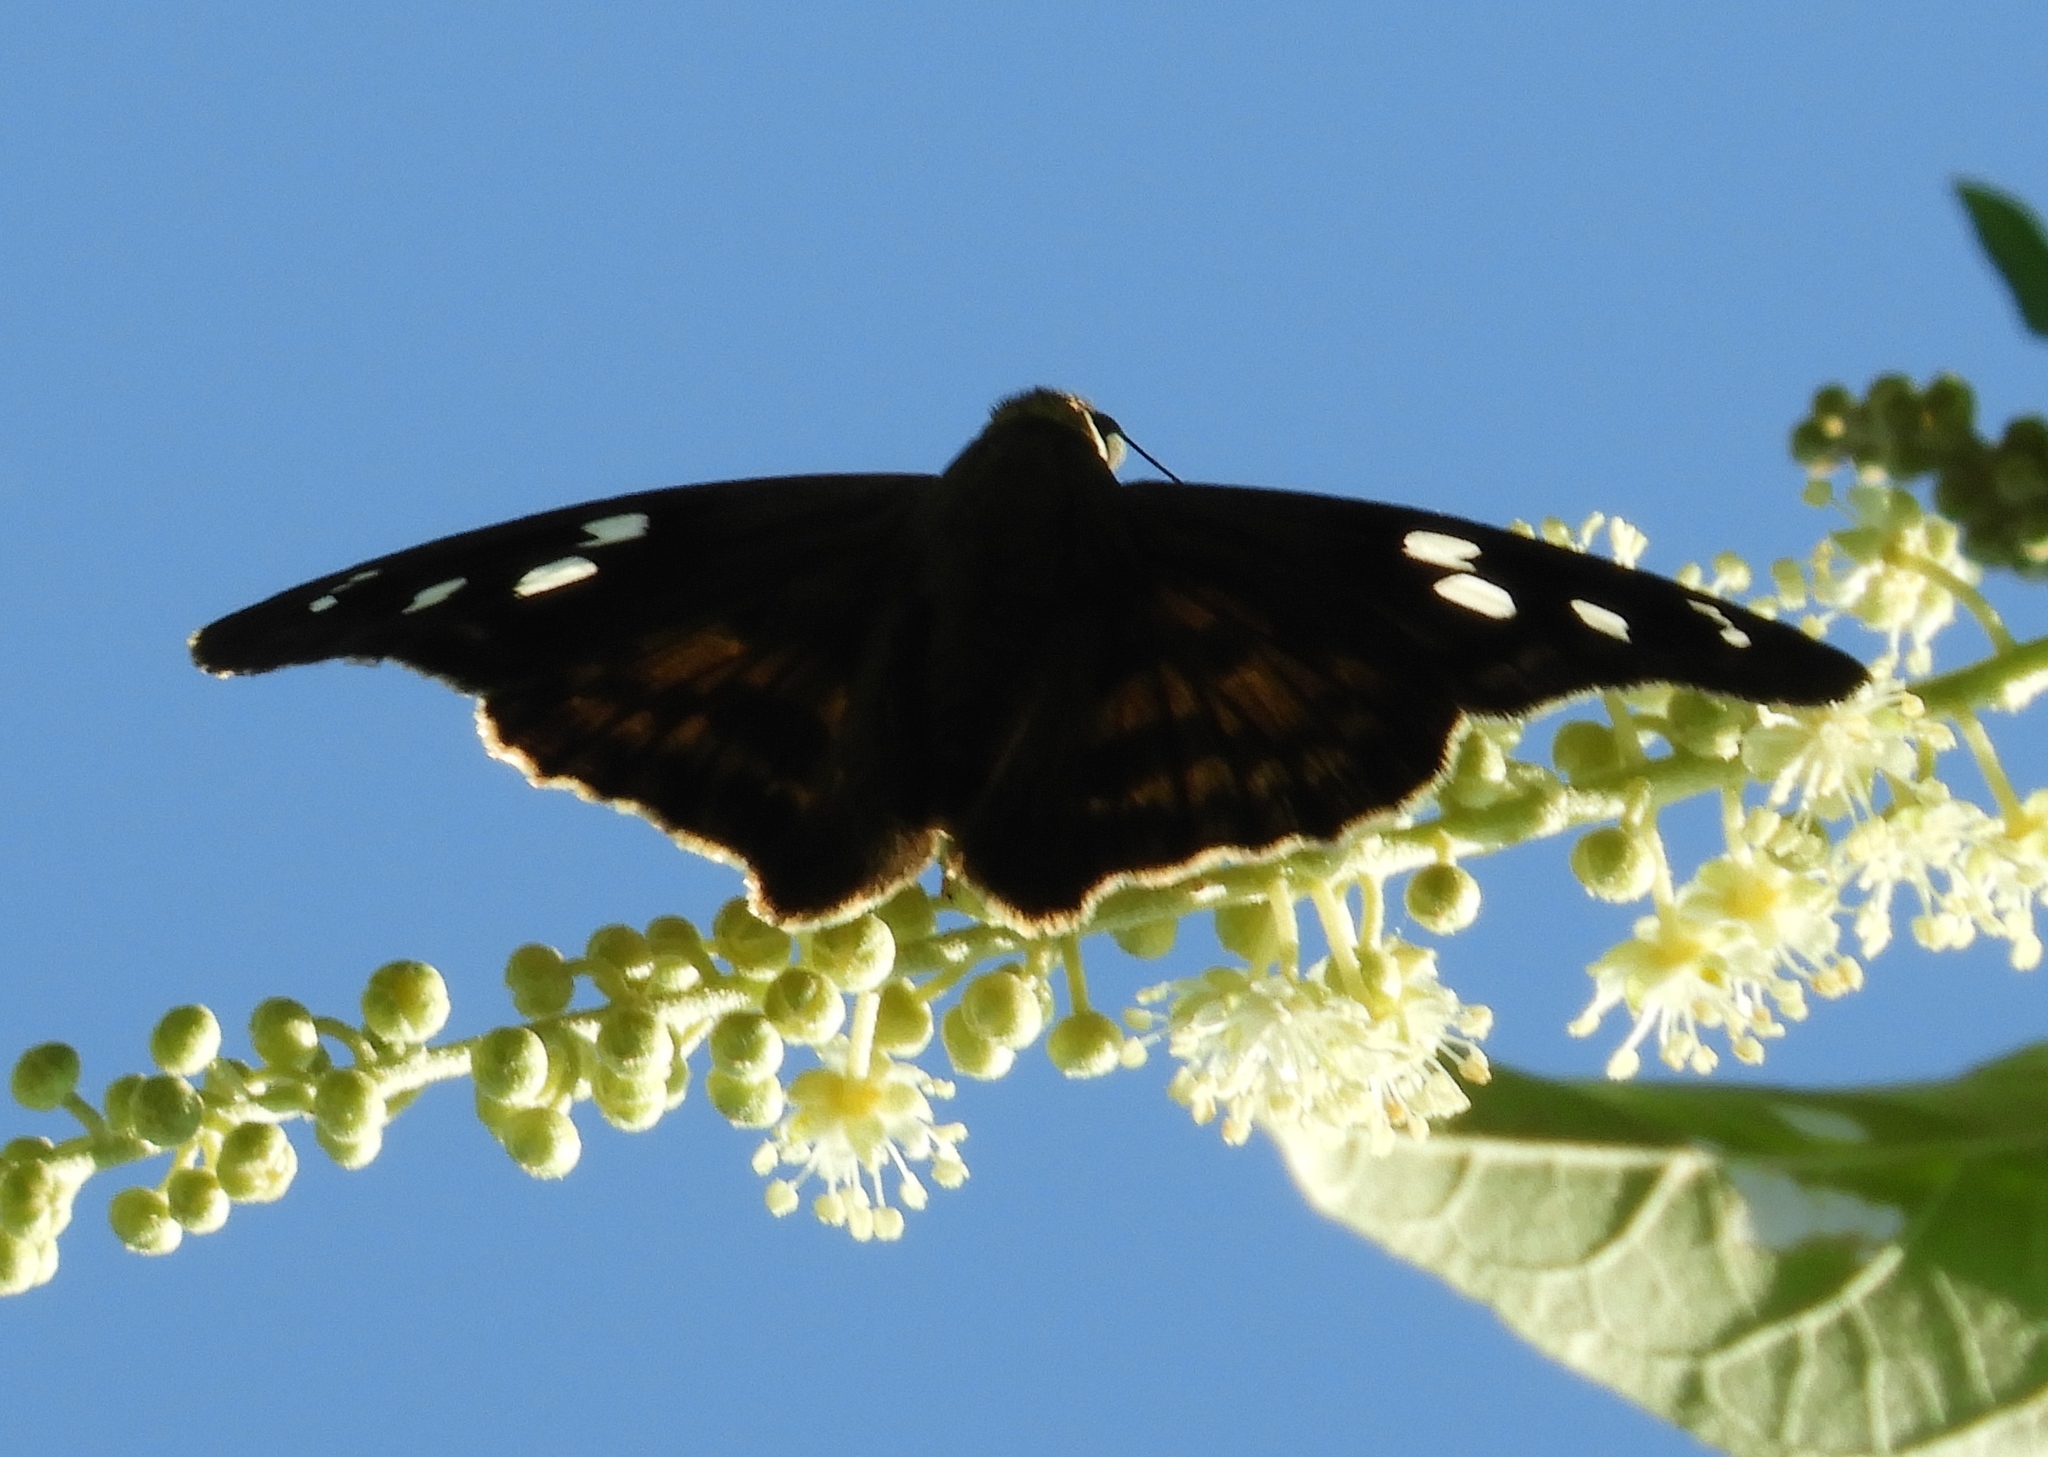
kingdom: Animalia
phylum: Arthropoda
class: Insecta
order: Lepidoptera
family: Hesperiidae
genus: Polygonus
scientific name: Polygonus leo
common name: Hammoch skipper
